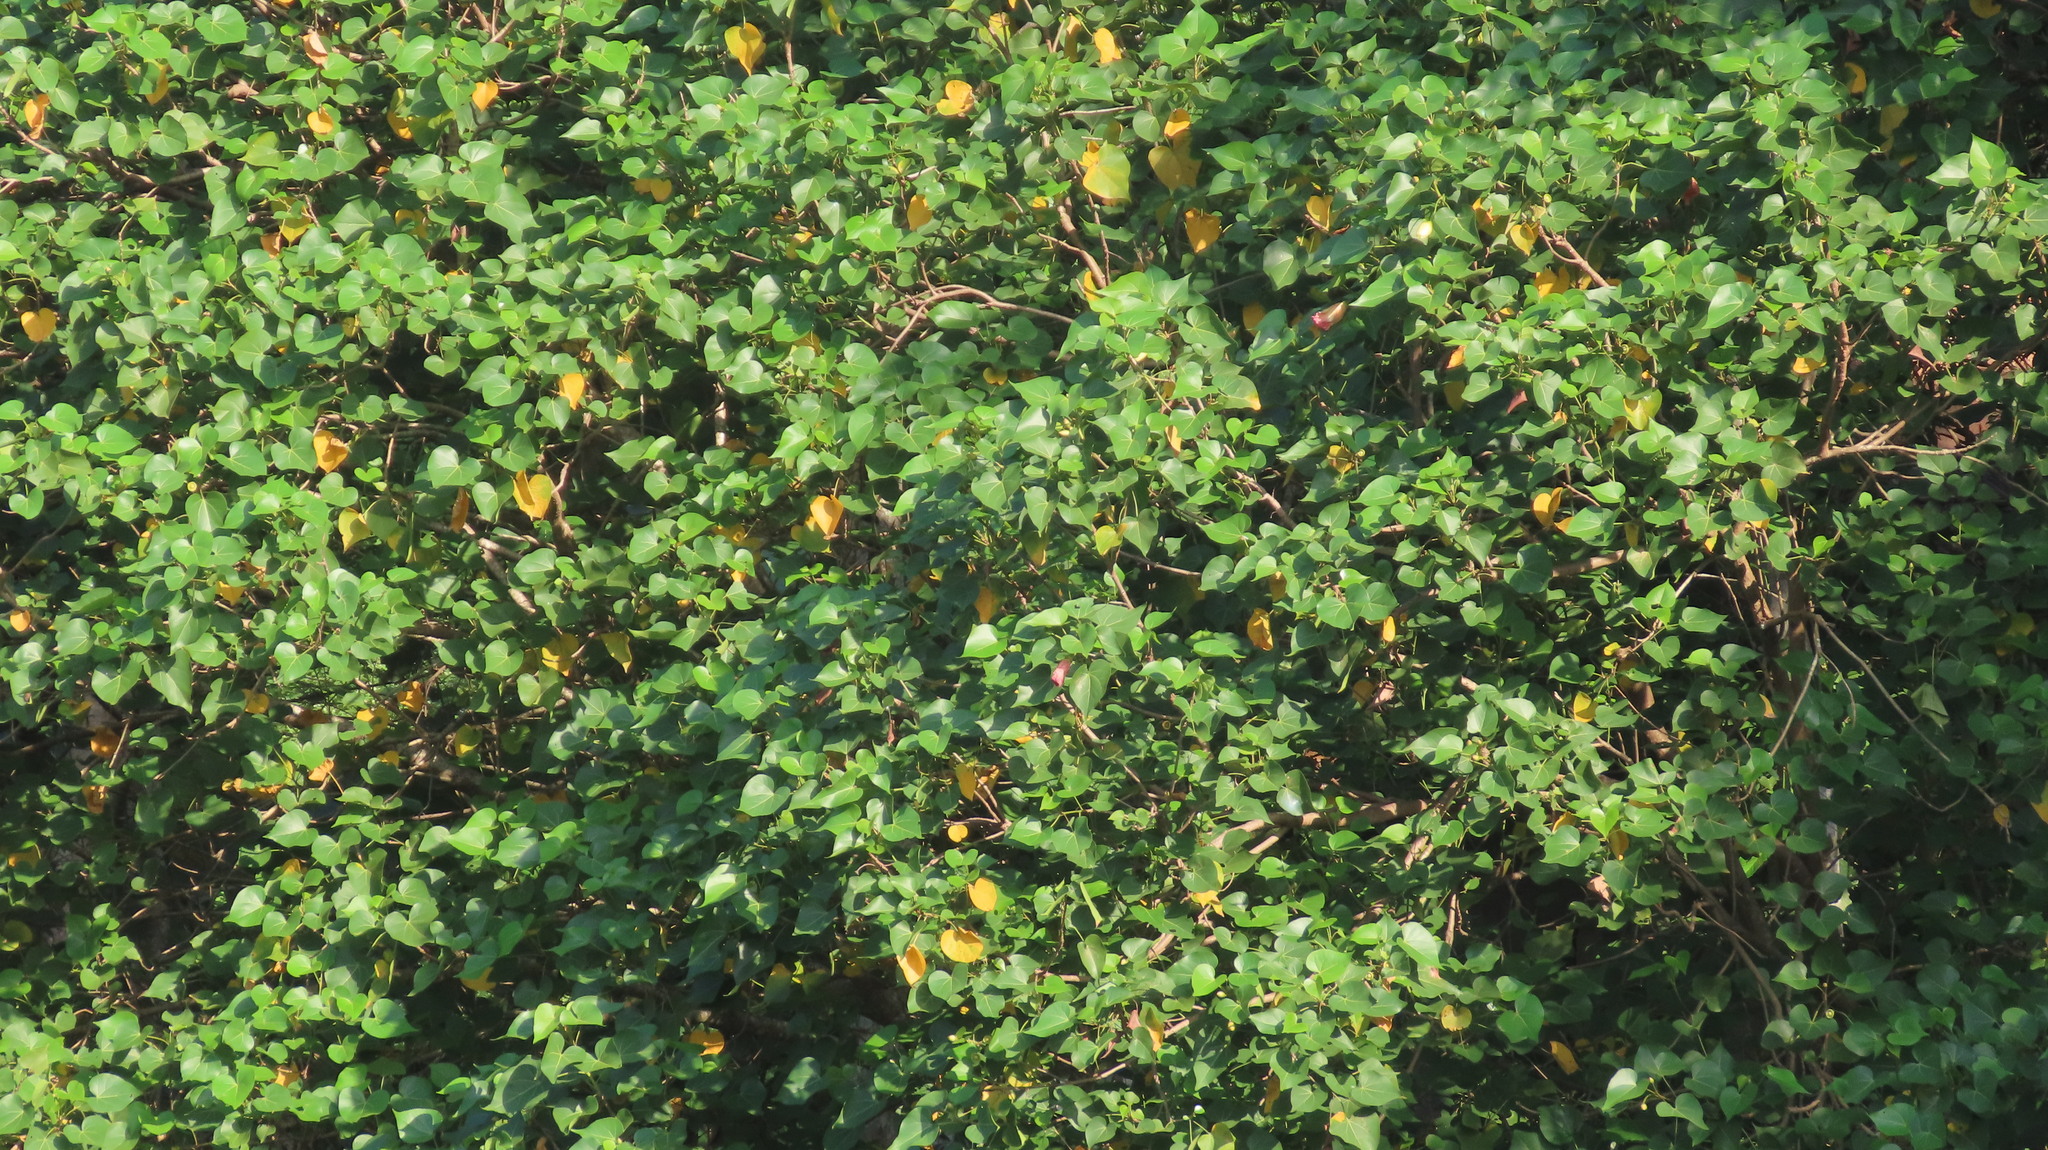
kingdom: Plantae
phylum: Tracheophyta
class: Magnoliopsida
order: Malvales
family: Malvaceae
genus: Thespesia
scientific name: Thespesia populnea
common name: Seaside mahoe
